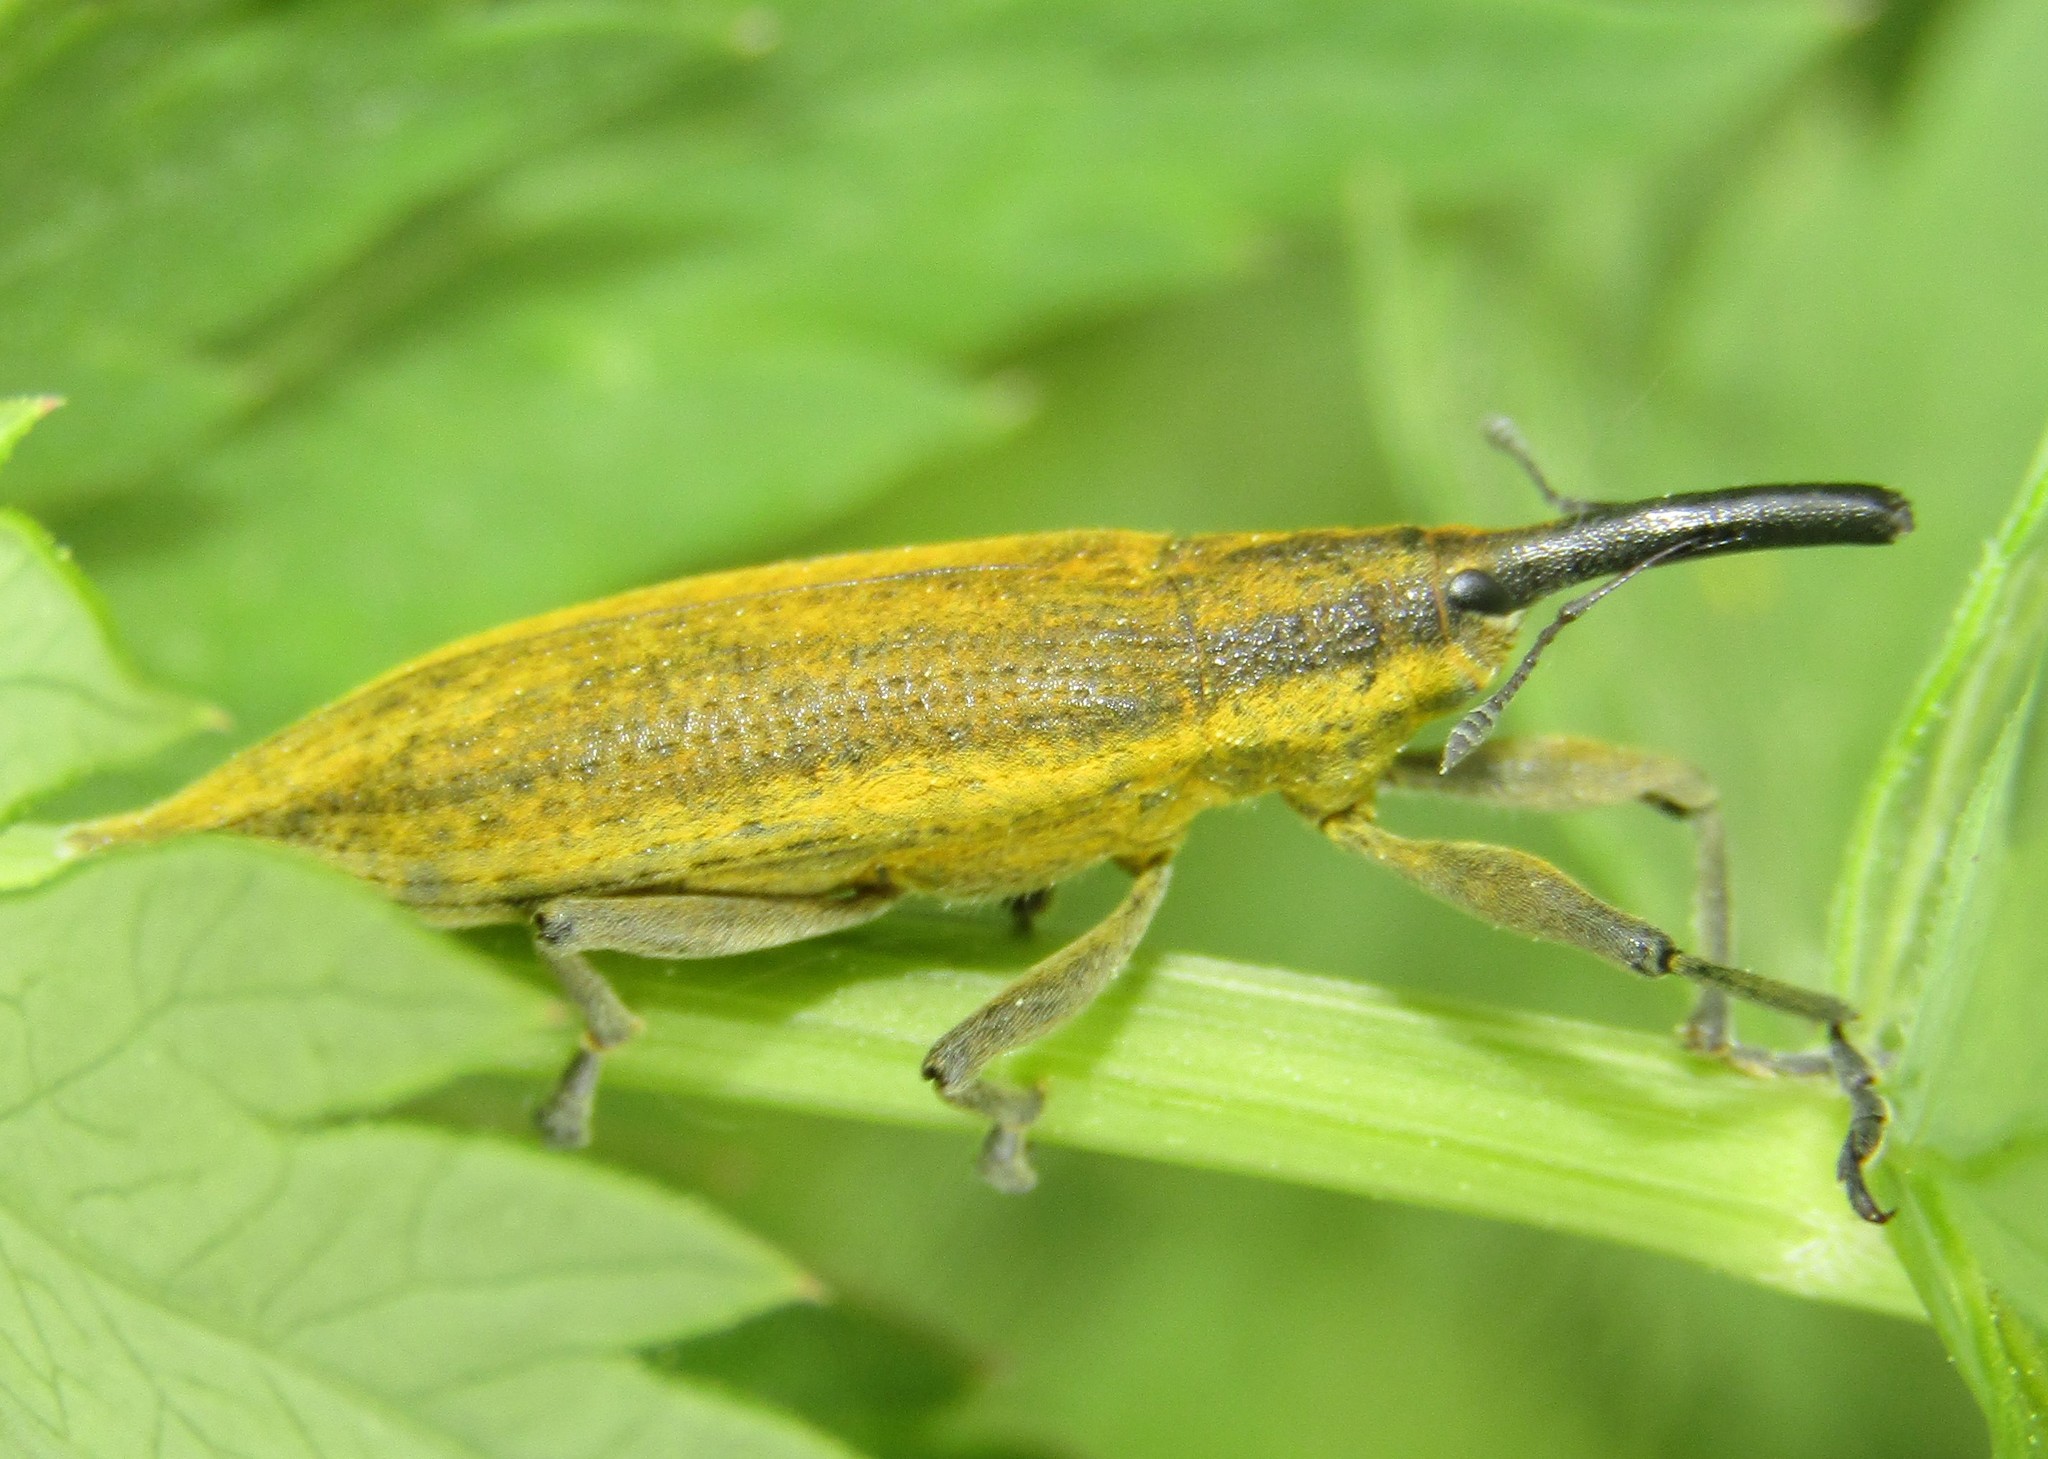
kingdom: Animalia
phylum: Arthropoda
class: Insecta
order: Coleoptera
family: Curculionidae
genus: Lixus
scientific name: Lixus iridis
